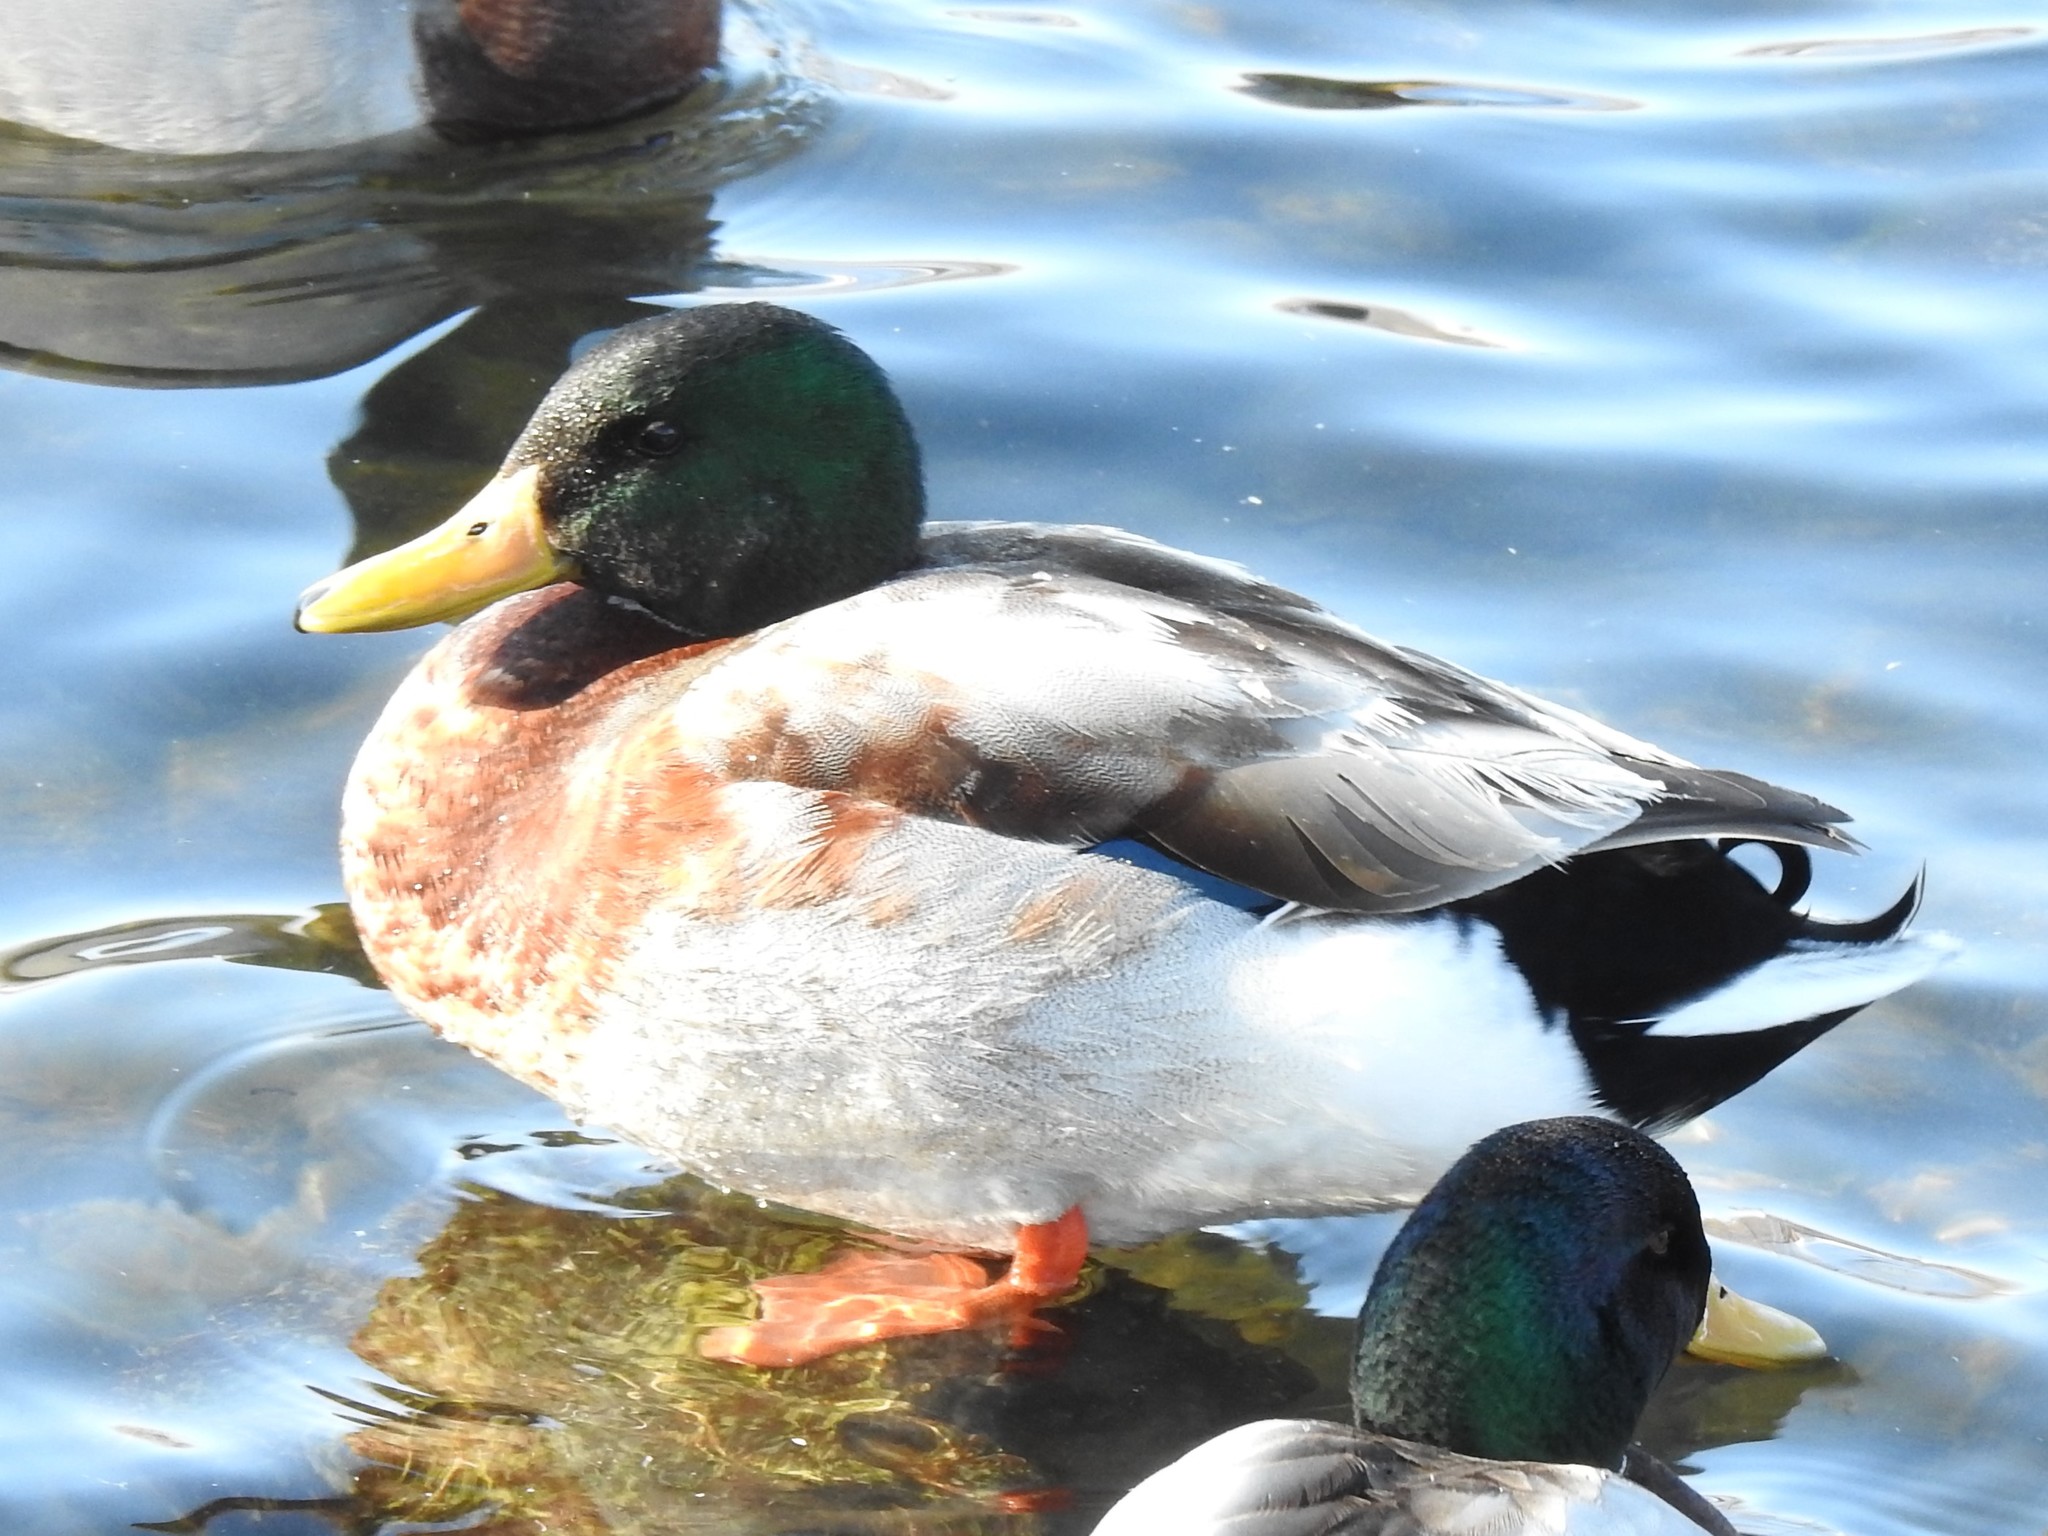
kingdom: Animalia
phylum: Chordata
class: Aves
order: Anseriformes
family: Anatidae
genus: Anas
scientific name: Anas platyrhynchos
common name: Mallard
